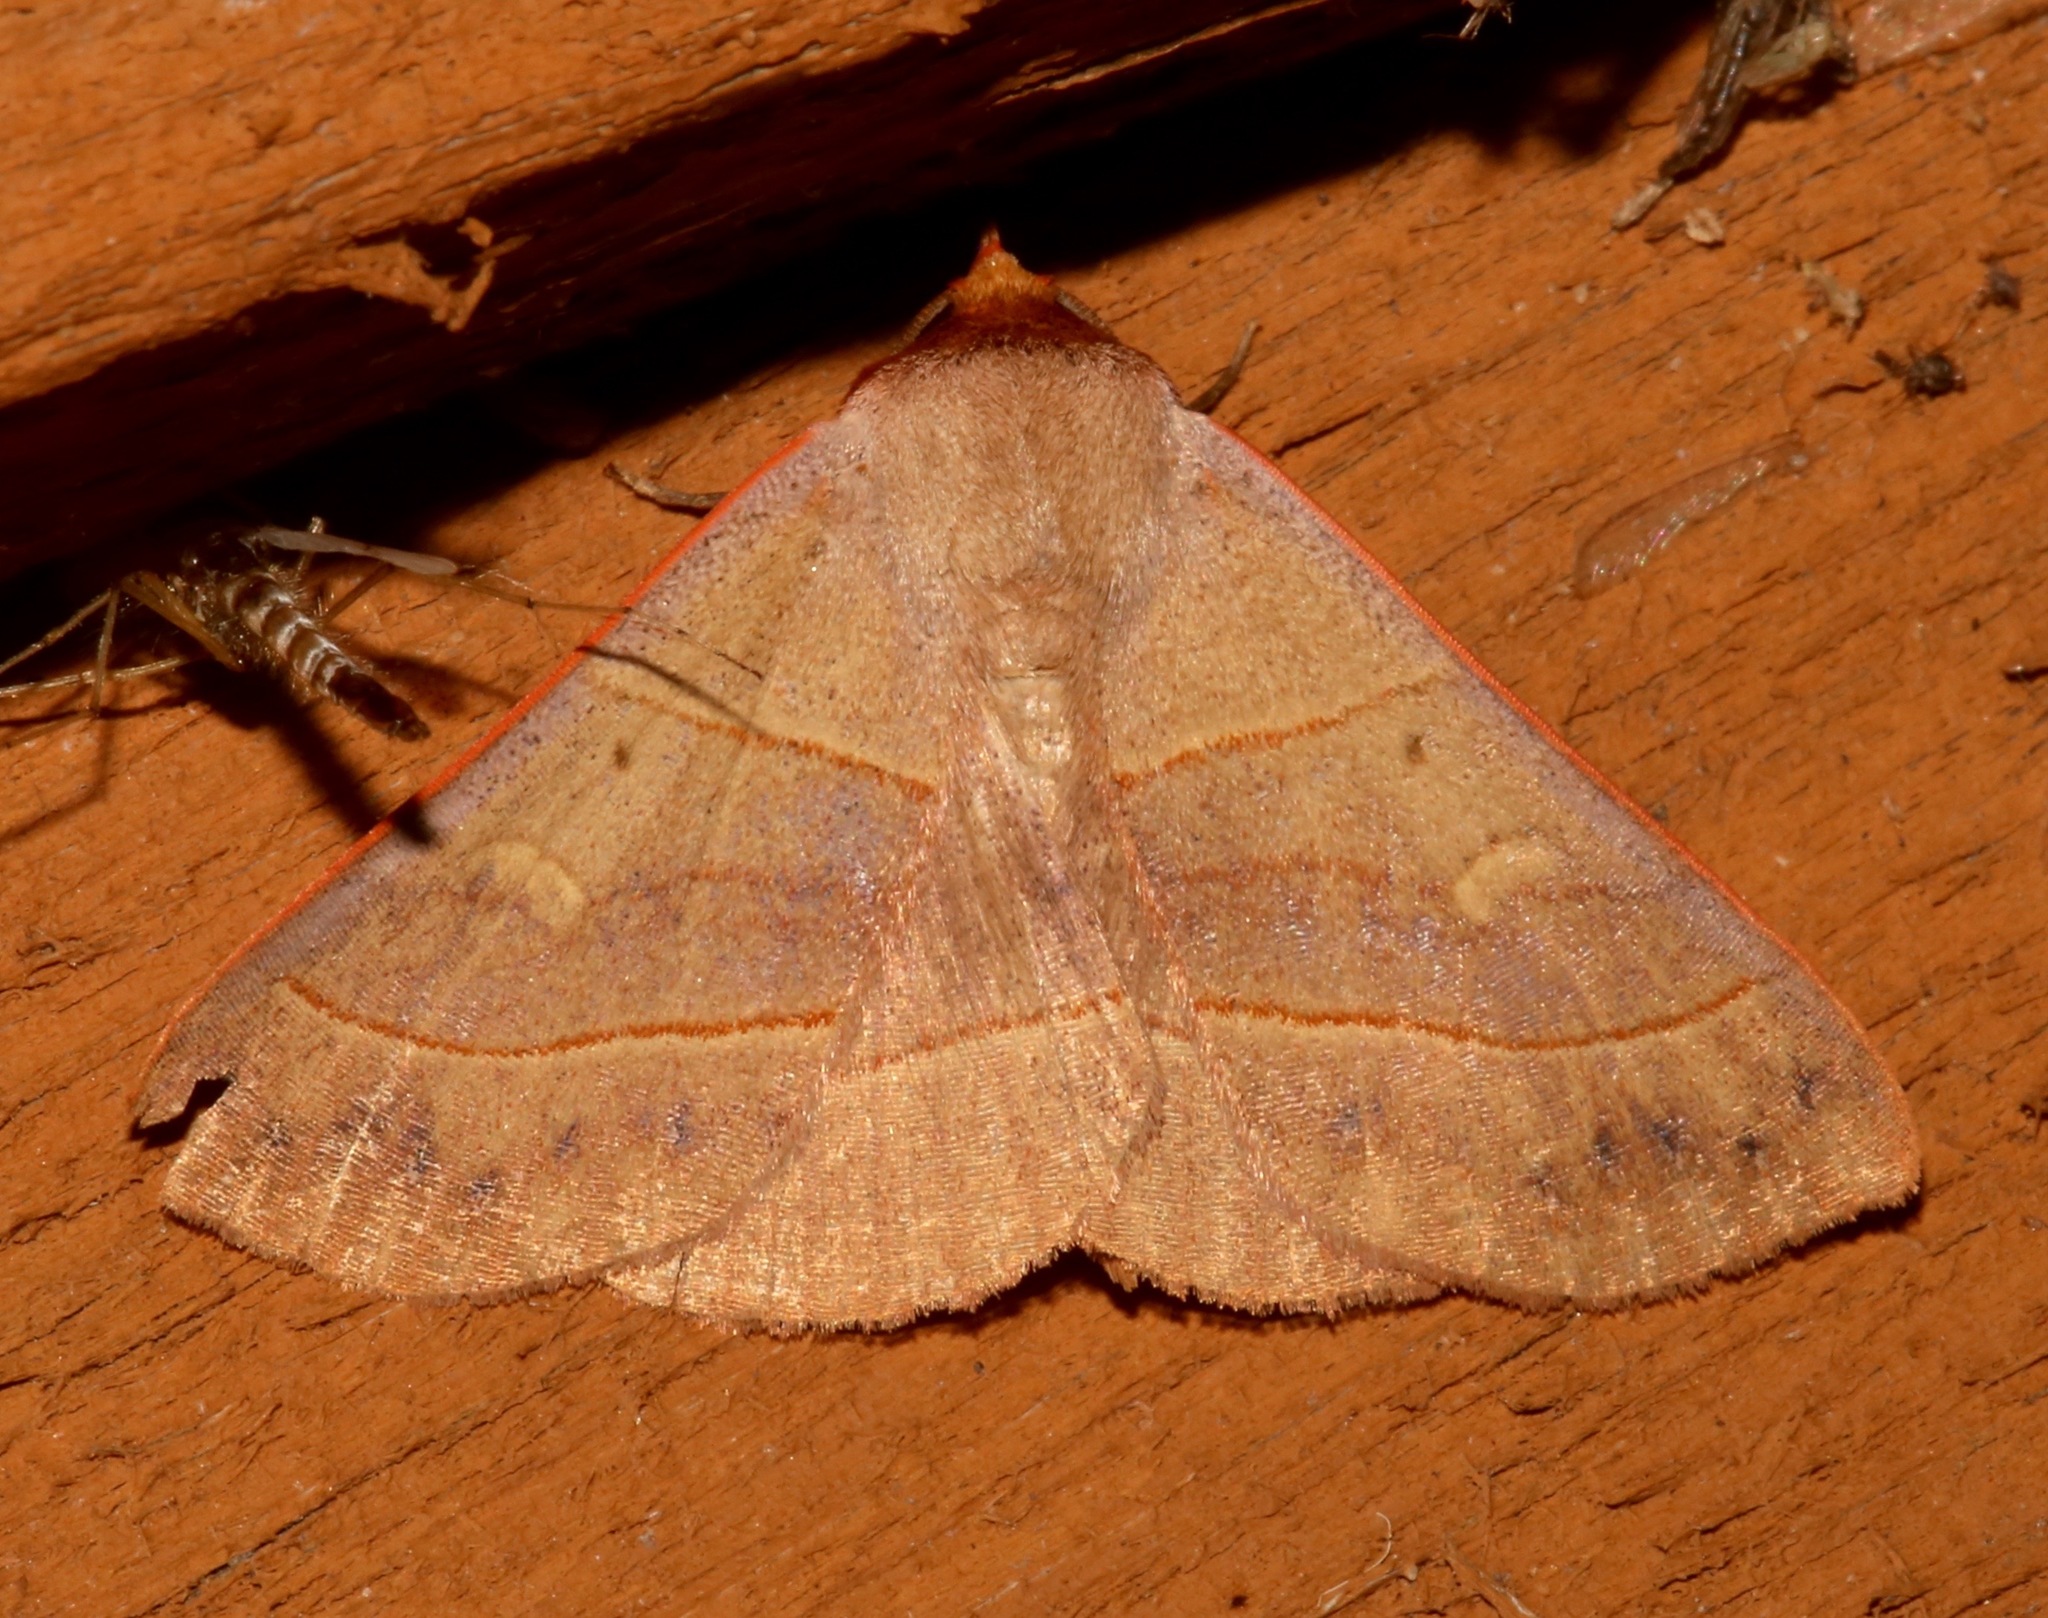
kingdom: Animalia
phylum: Arthropoda
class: Insecta
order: Lepidoptera
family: Erebidae
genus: Panopoda
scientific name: Panopoda rufimargo
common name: Red-lined panopoda moth
